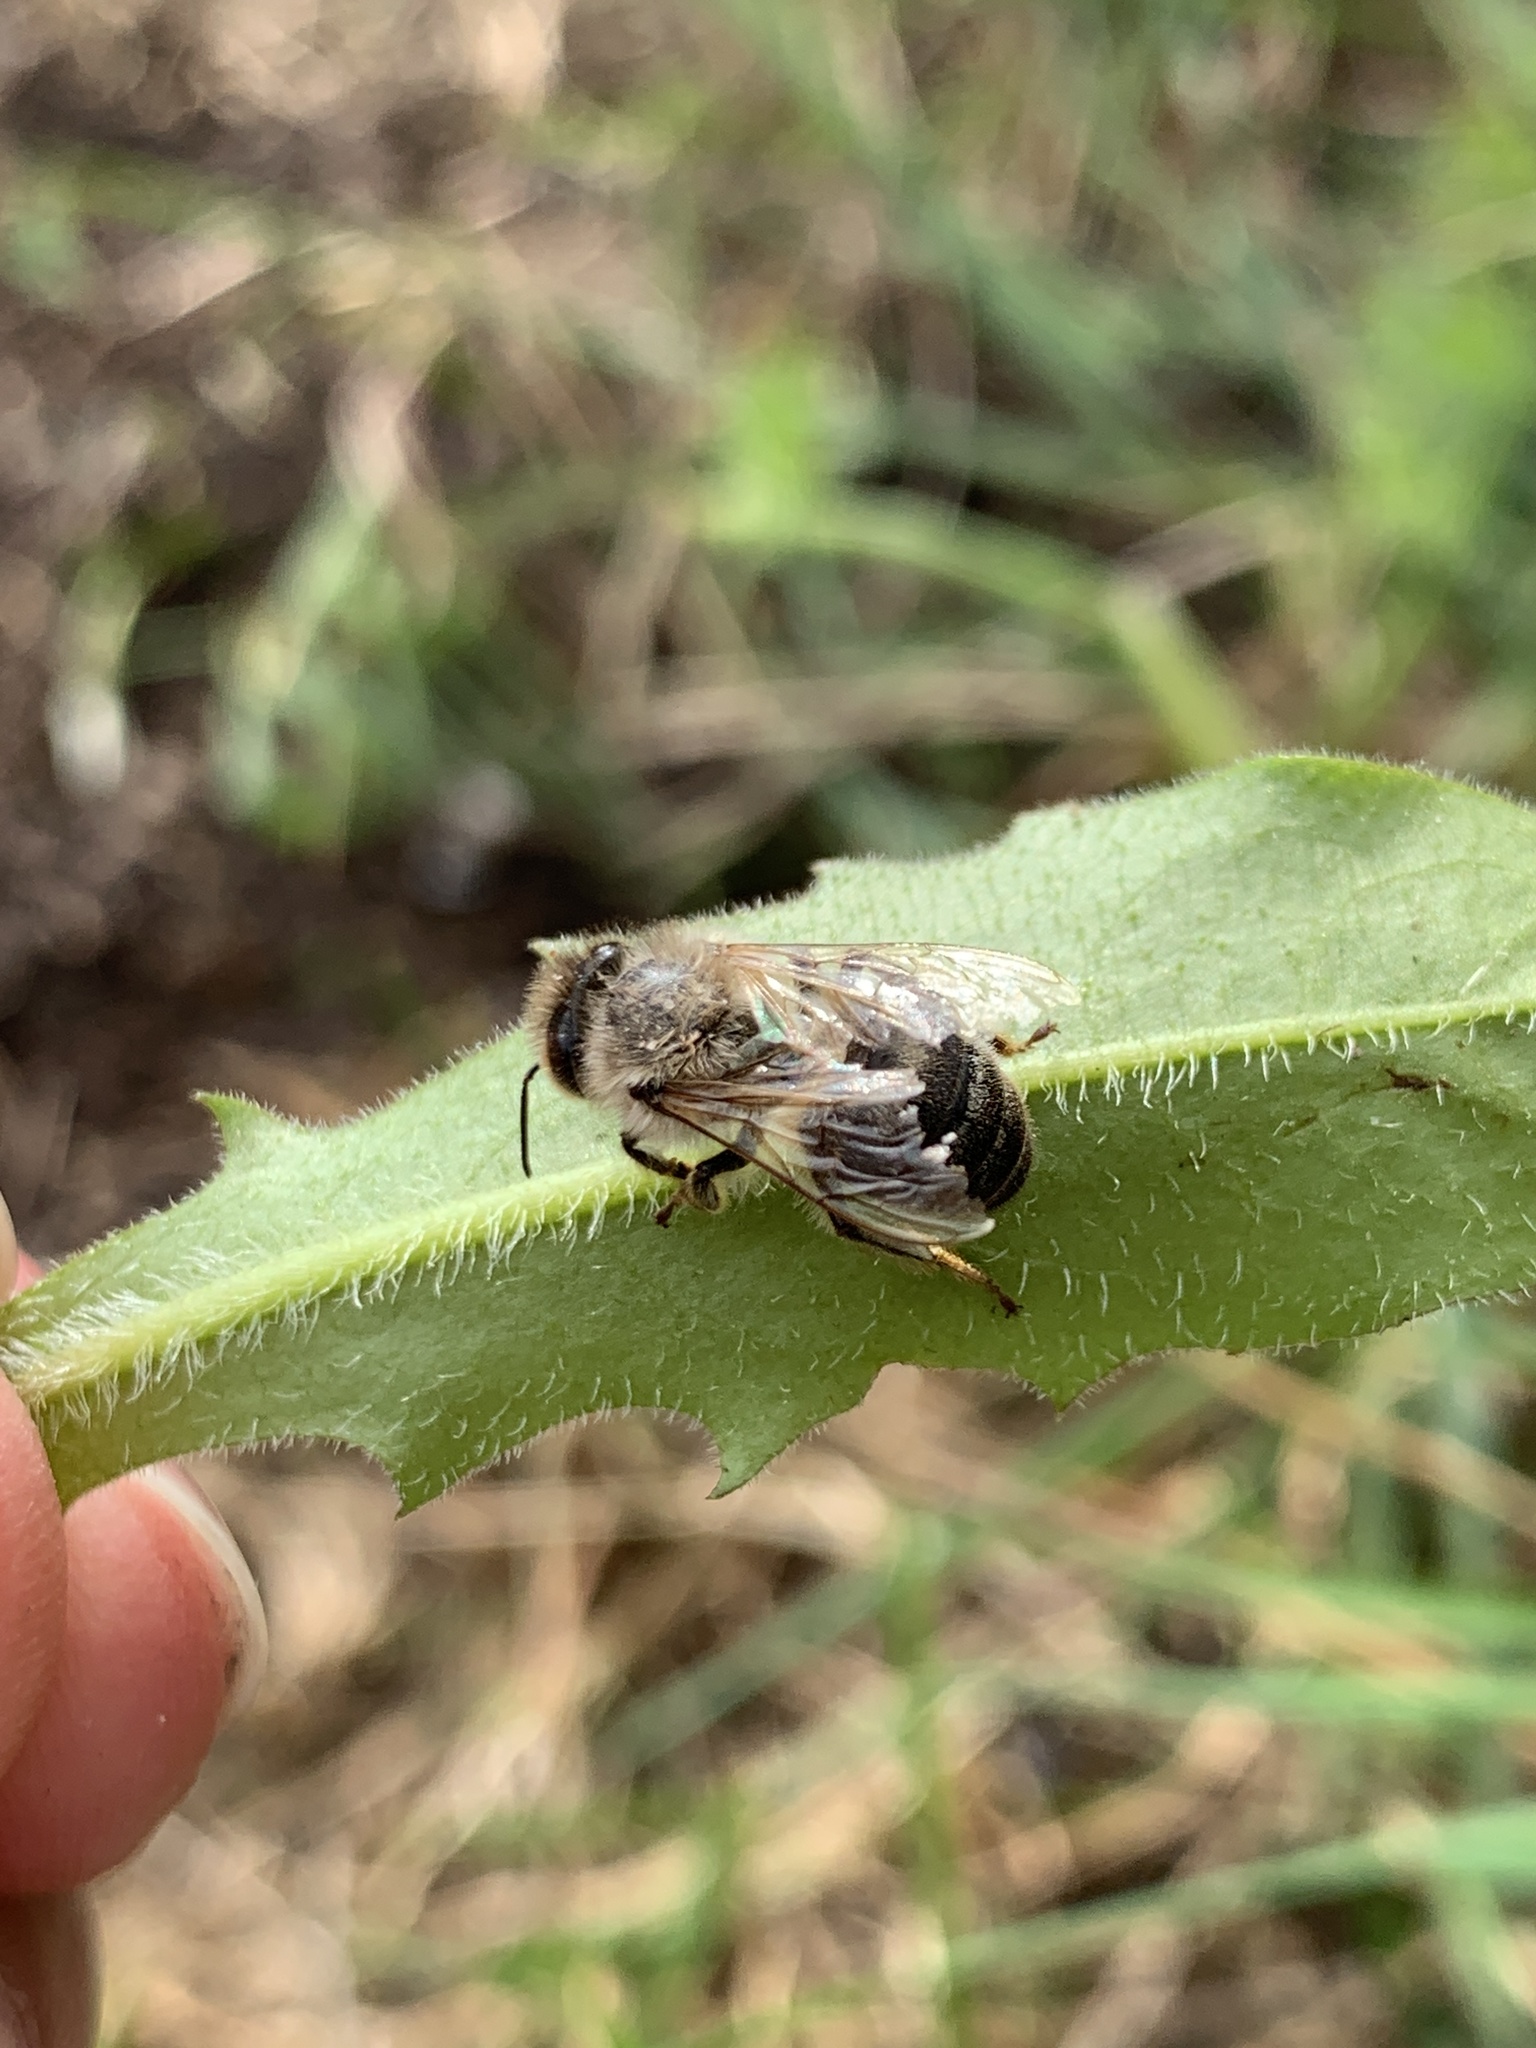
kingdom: Animalia
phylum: Arthropoda
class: Insecta
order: Hymenoptera
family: Apidae
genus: Apis
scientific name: Apis mellifera
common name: Honey bee
